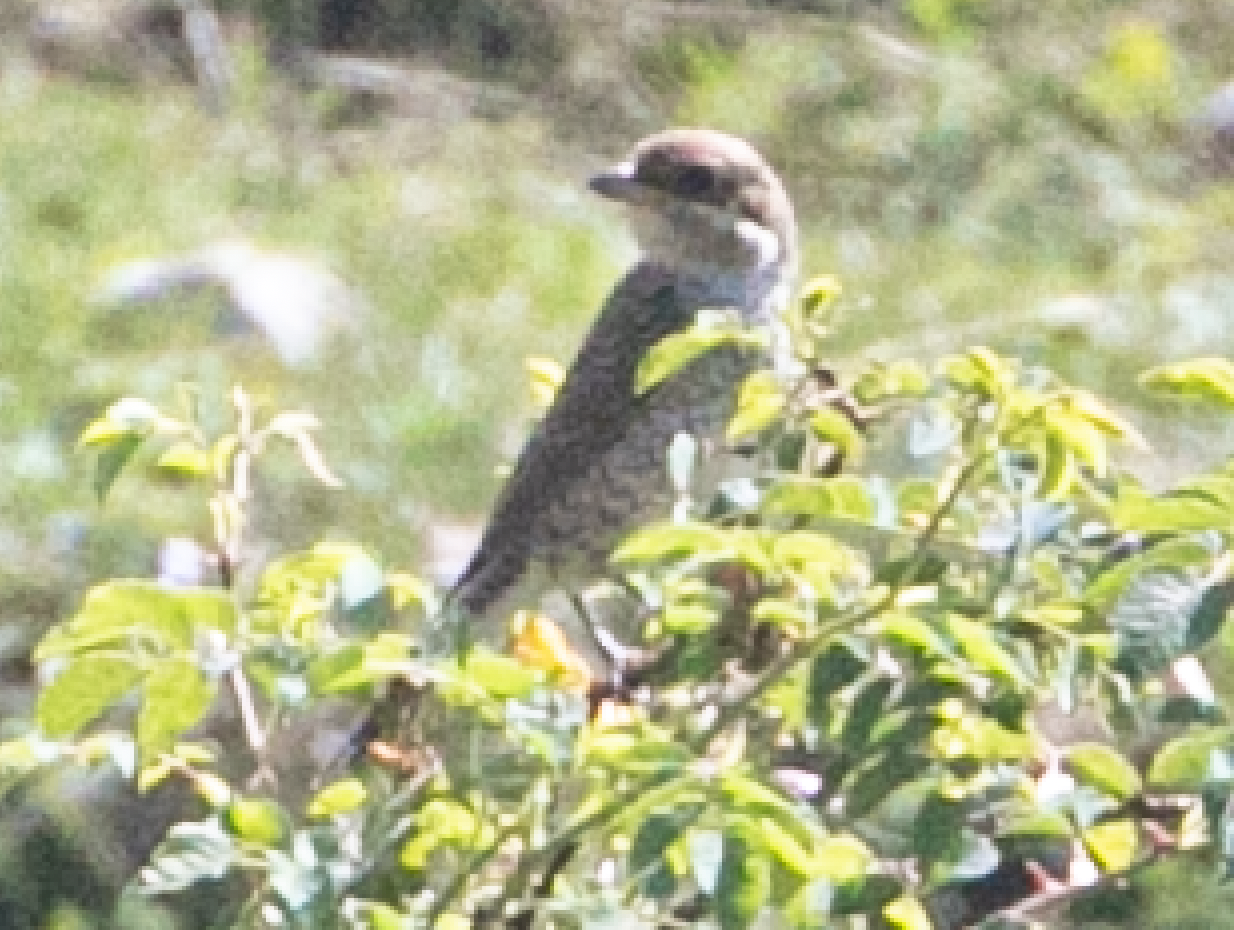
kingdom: Animalia
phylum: Chordata
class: Aves
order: Passeriformes
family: Laniidae
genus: Lanius
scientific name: Lanius collurio
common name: Red-backed shrike
